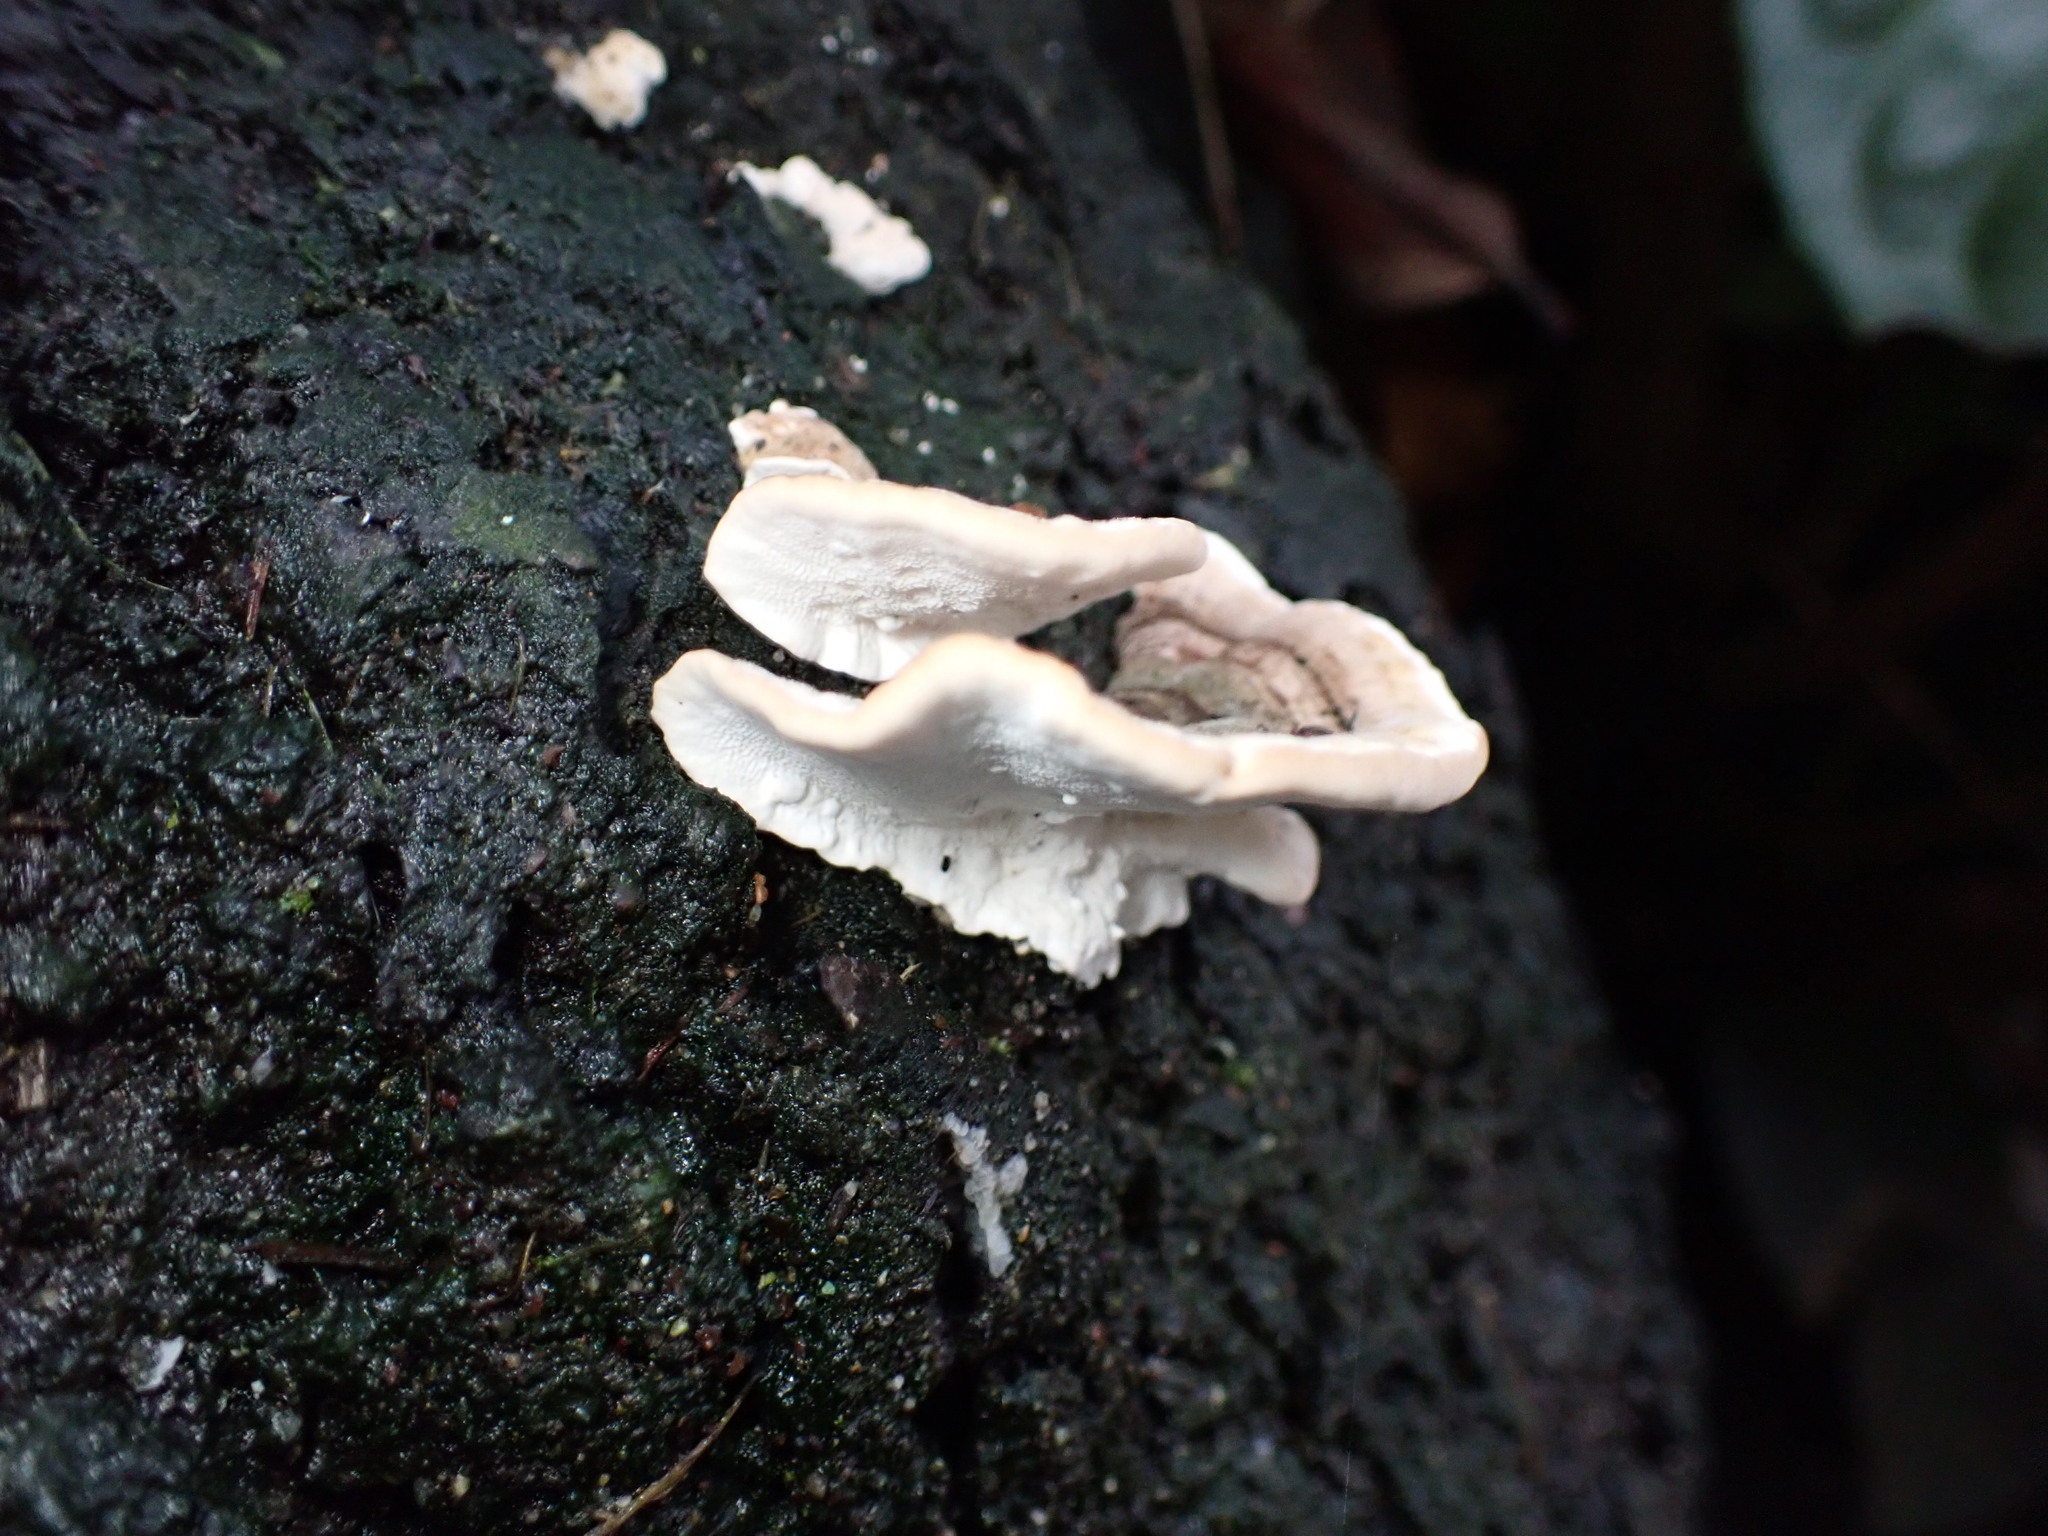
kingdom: Fungi
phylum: Basidiomycota
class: Agaricomycetes
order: Polyporales
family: Polyporaceae
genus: Trametes
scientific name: Trametes ochracea
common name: Ochre bracket
